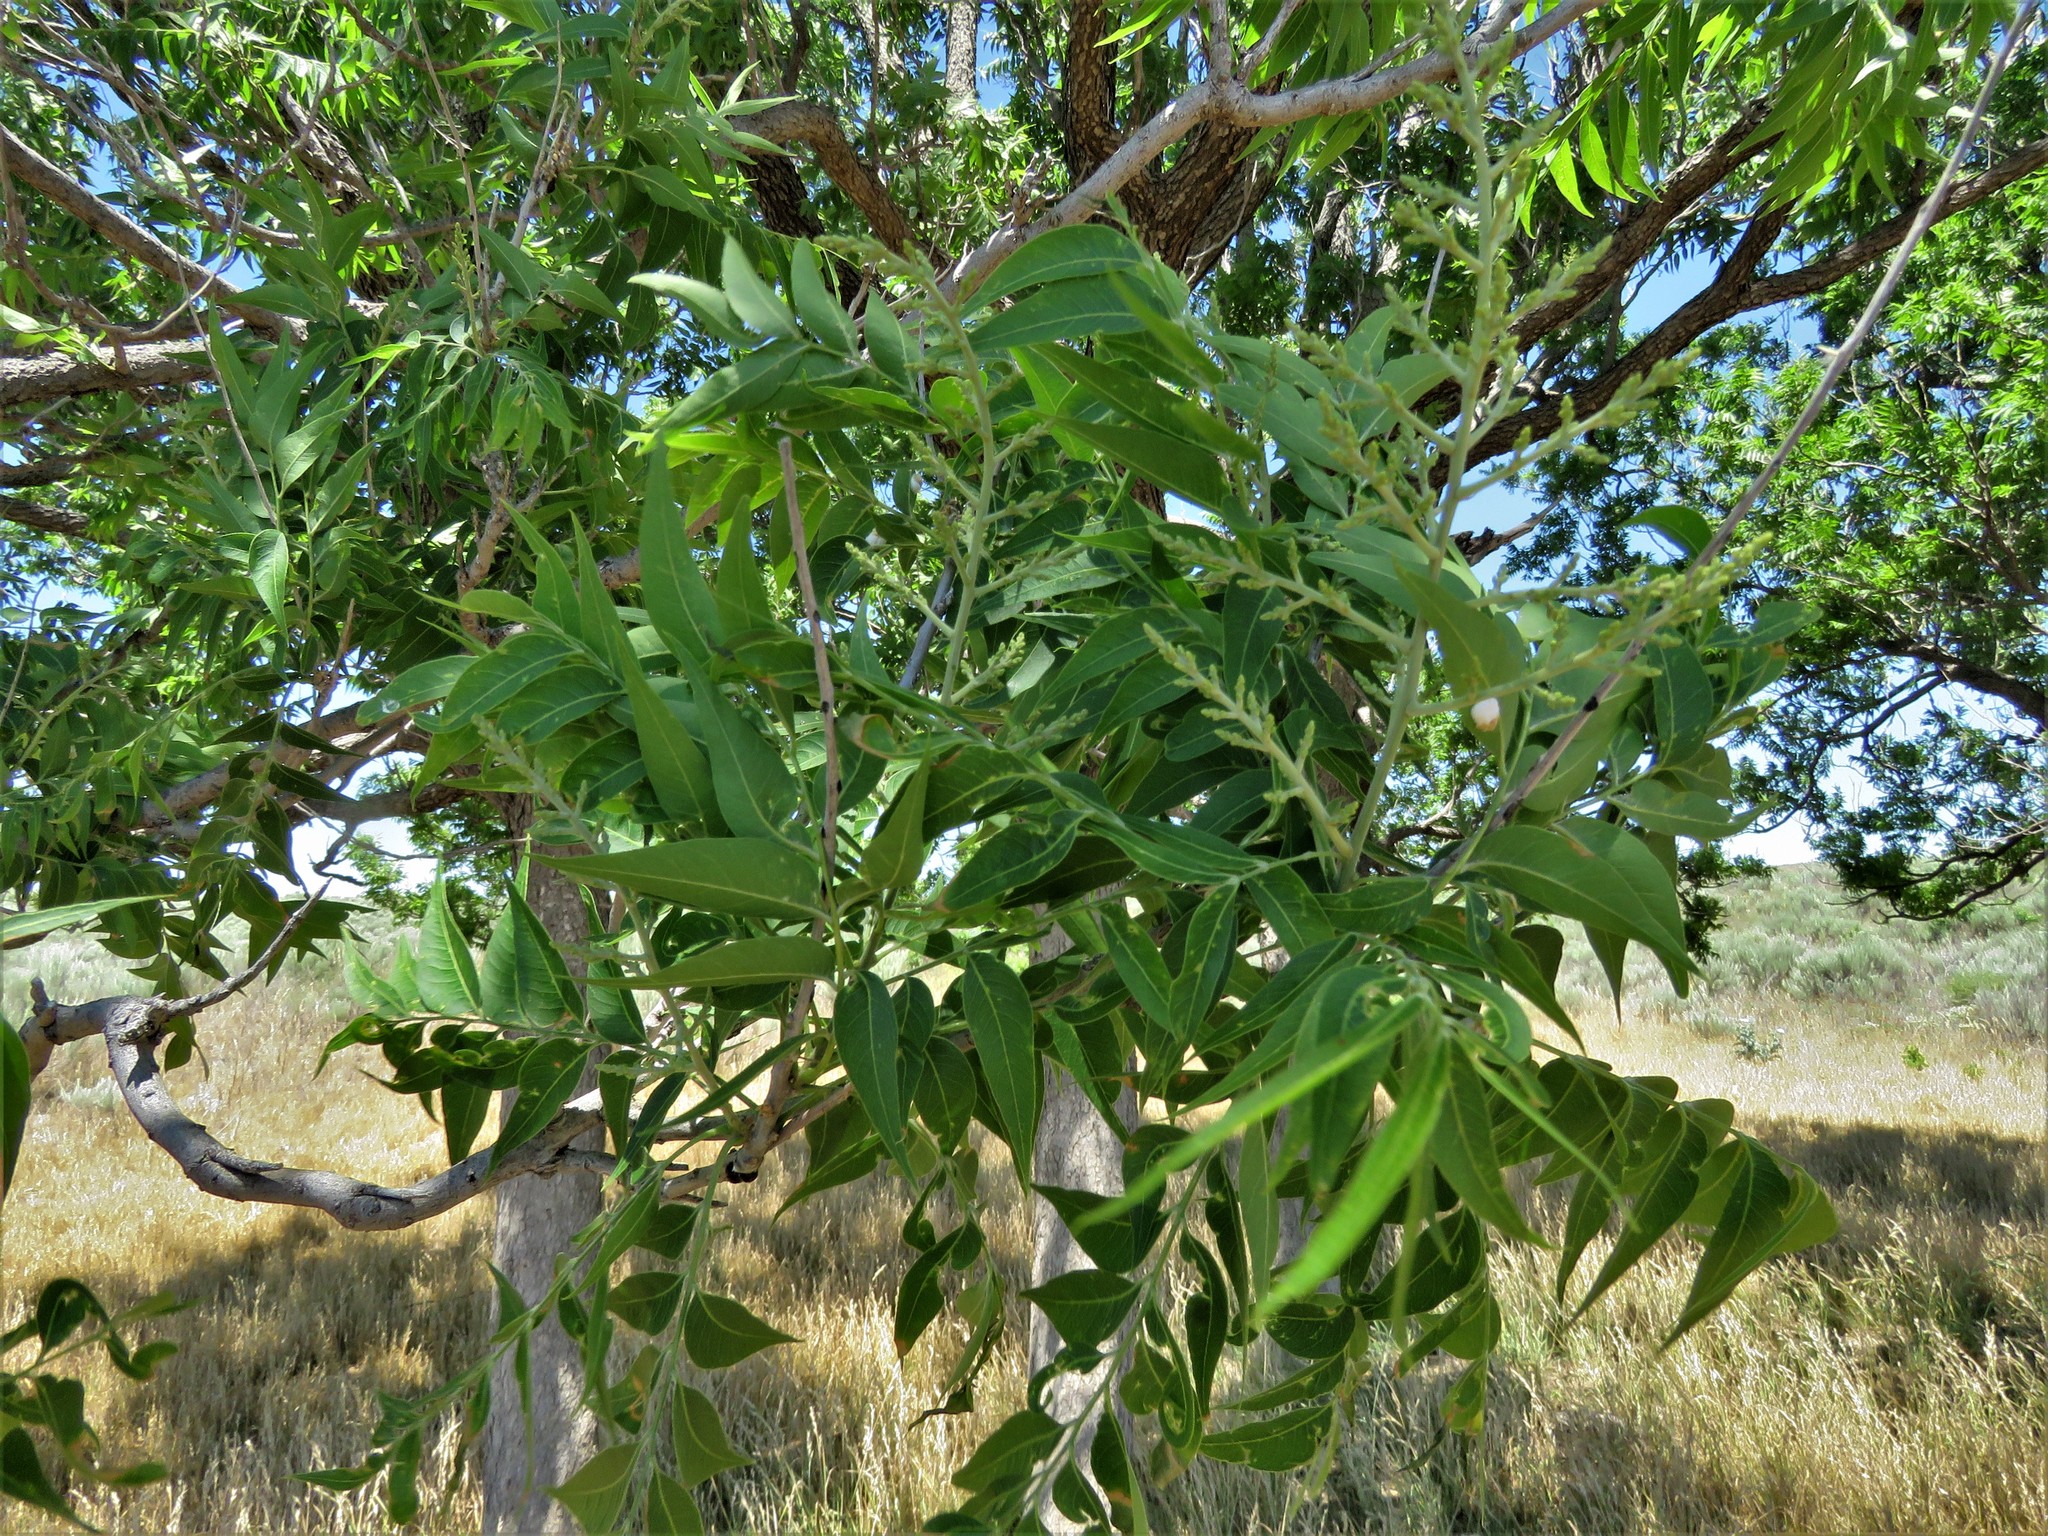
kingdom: Plantae
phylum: Tracheophyta
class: Magnoliopsida
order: Sapindales
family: Sapindaceae
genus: Sapindus
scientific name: Sapindus drummondii
